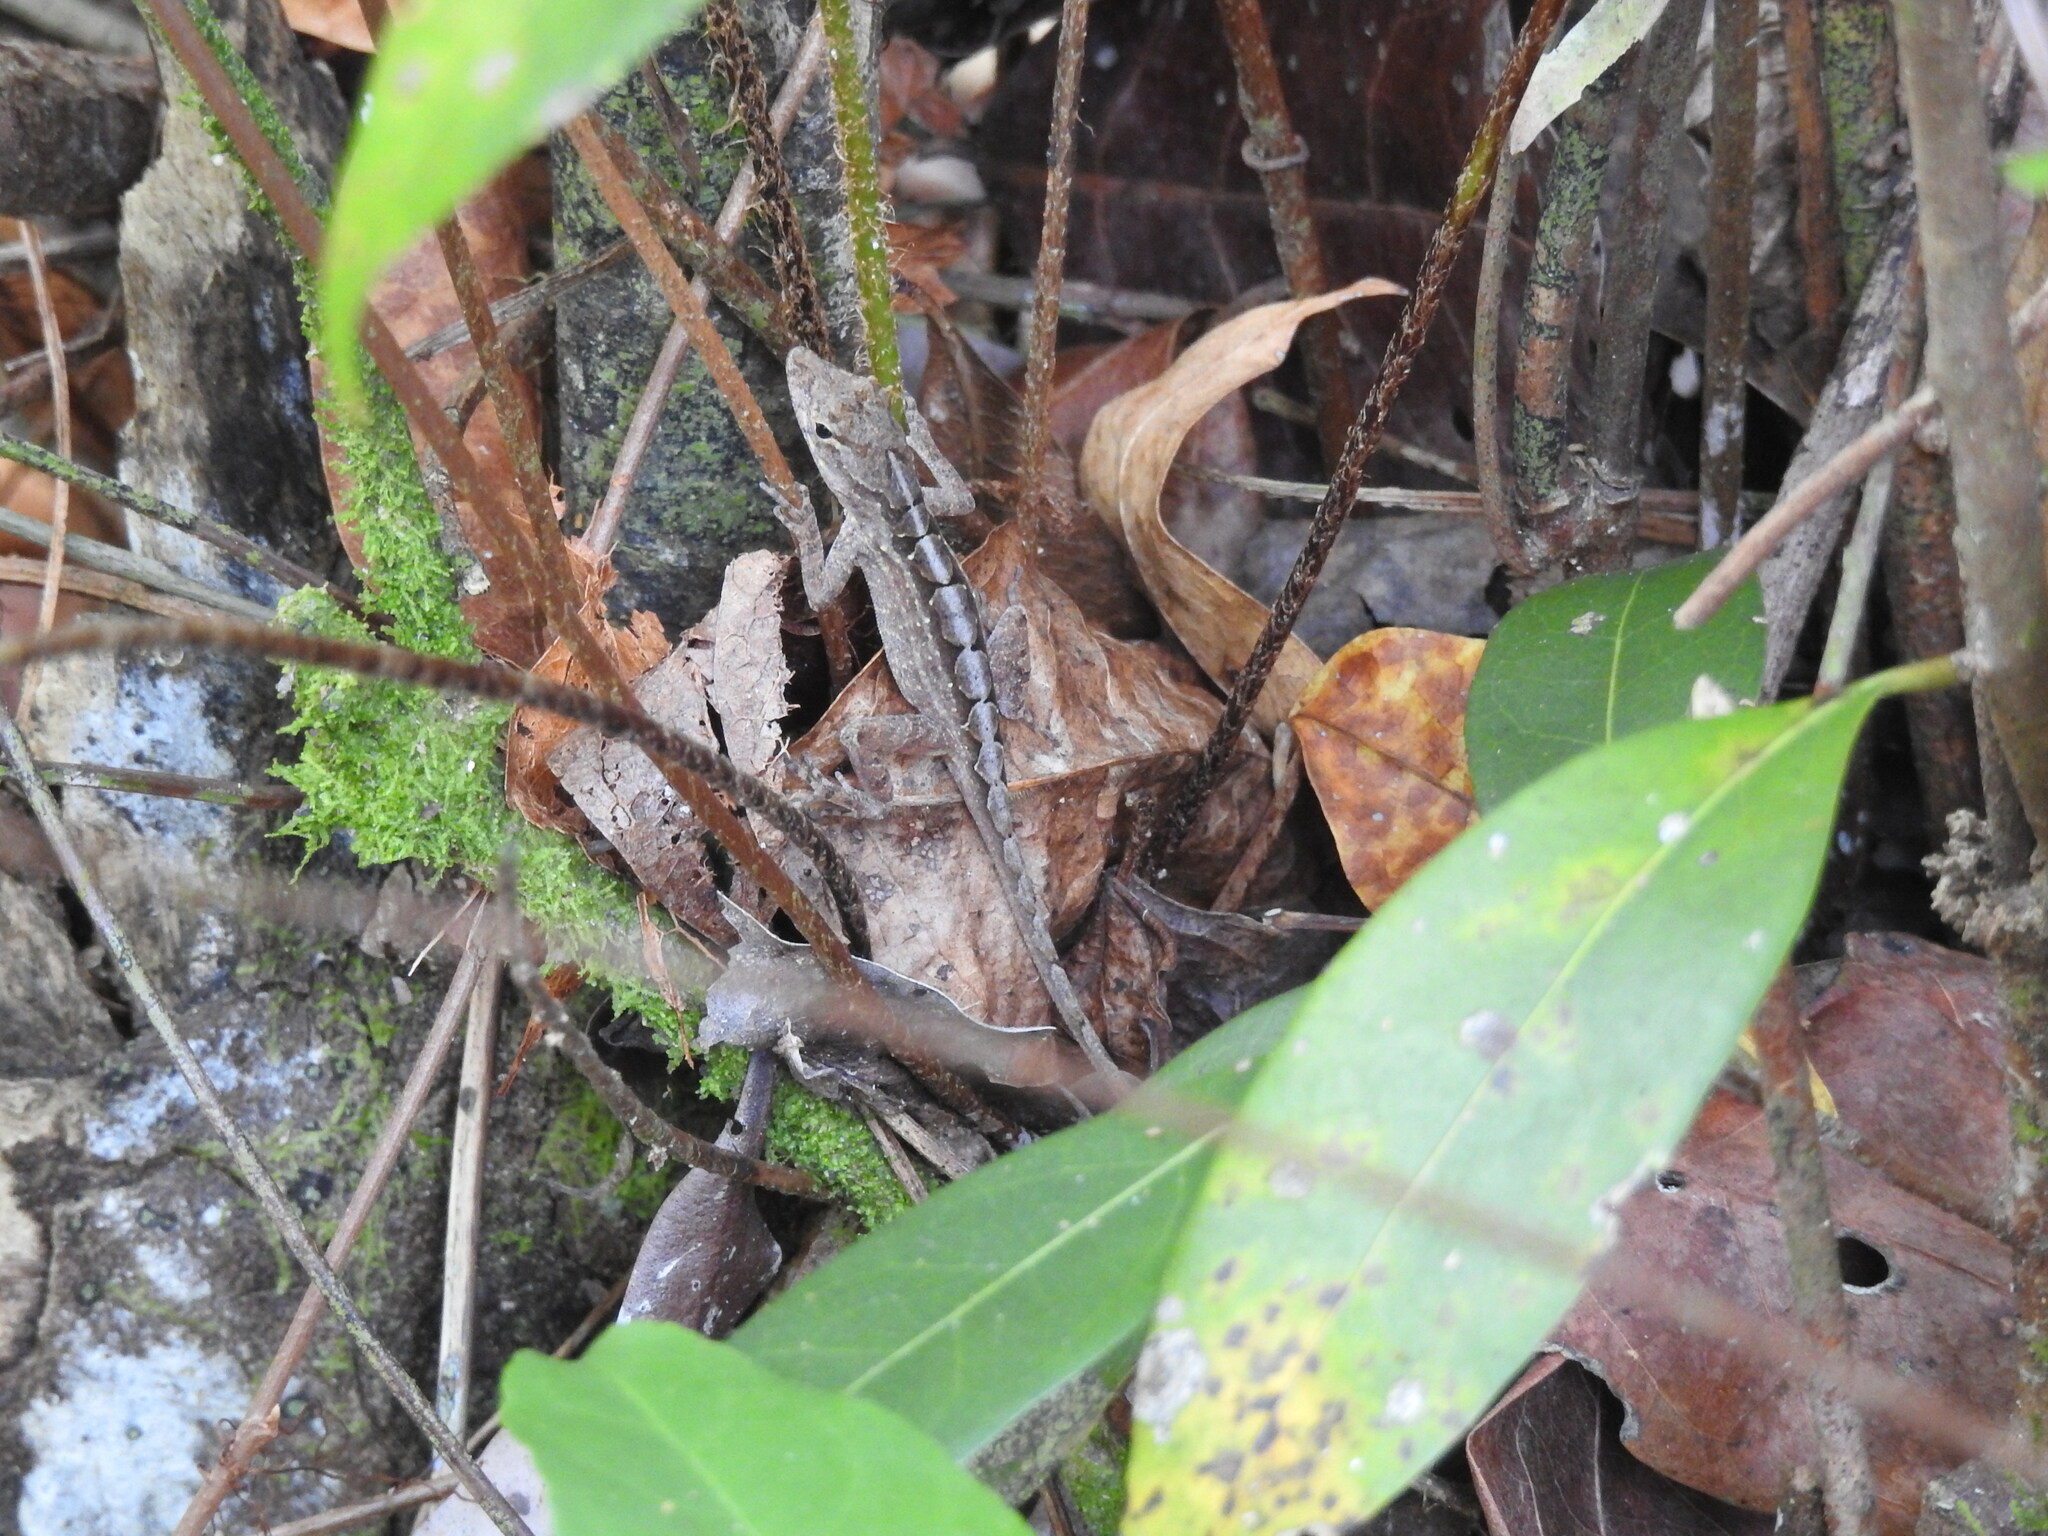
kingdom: Animalia
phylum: Chordata
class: Squamata
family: Dactyloidae
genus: Anolis
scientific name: Anolis sagrei
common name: Brown anole
